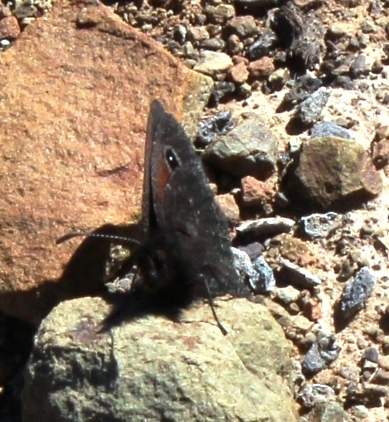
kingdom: Animalia
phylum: Arthropoda
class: Insecta
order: Lepidoptera
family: Nymphalidae
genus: Erebia
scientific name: Erebia
